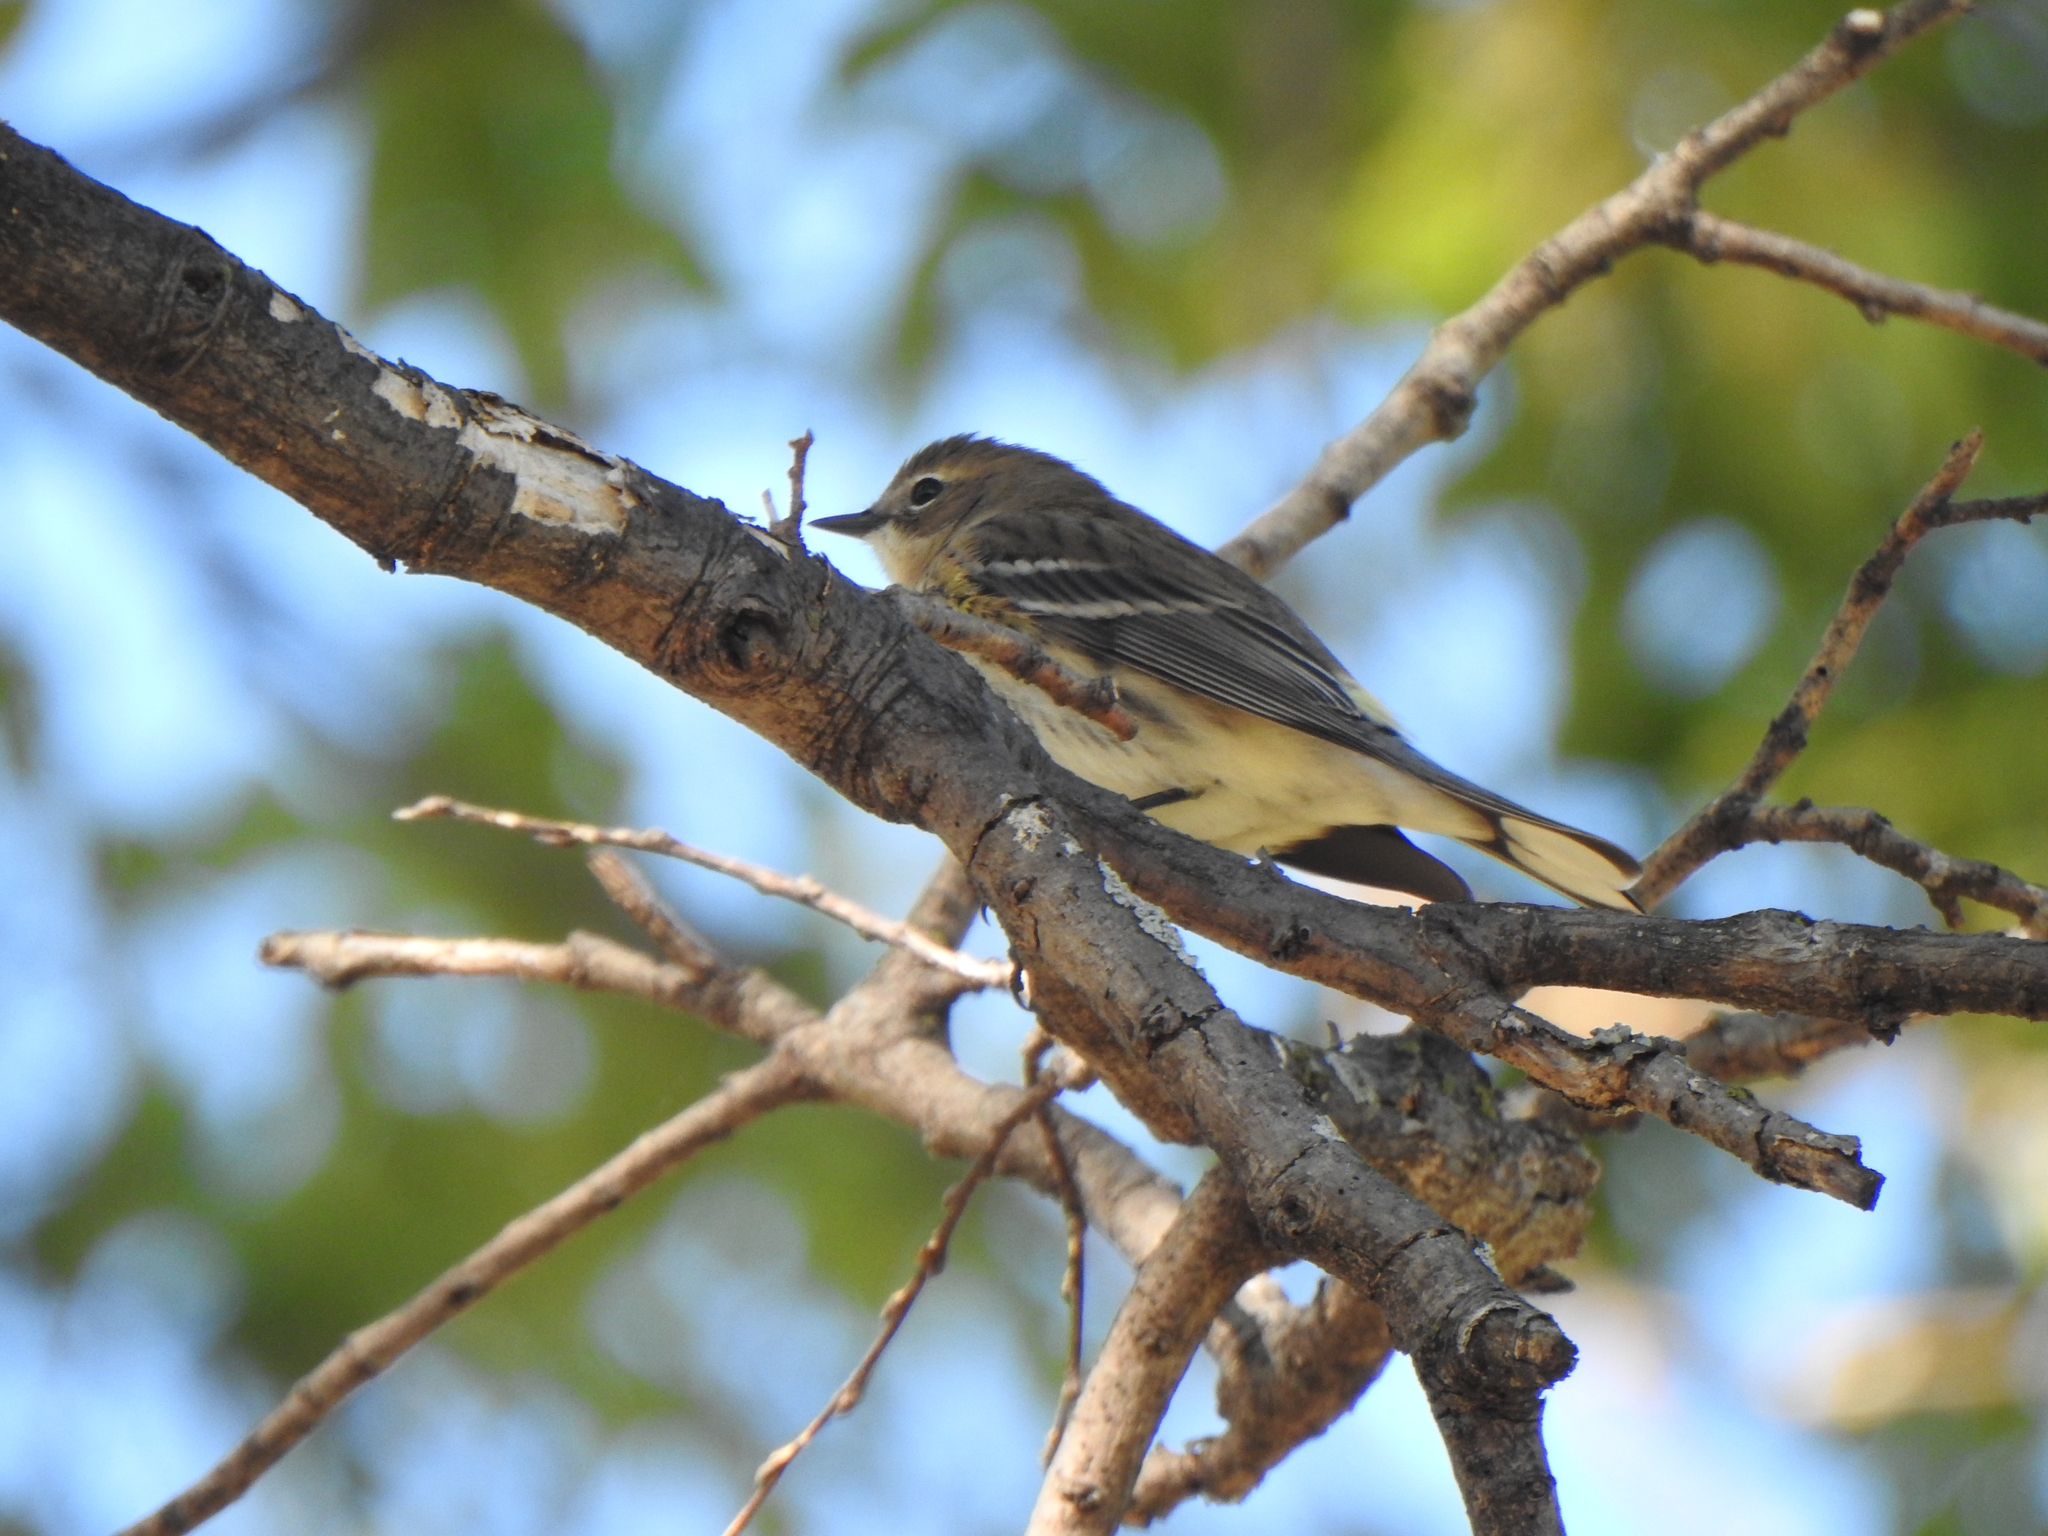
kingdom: Animalia
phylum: Chordata
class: Aves
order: Passeriformes
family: Parulidae
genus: Setophaga
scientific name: Setophaga coronata
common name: Myrtle warbler
